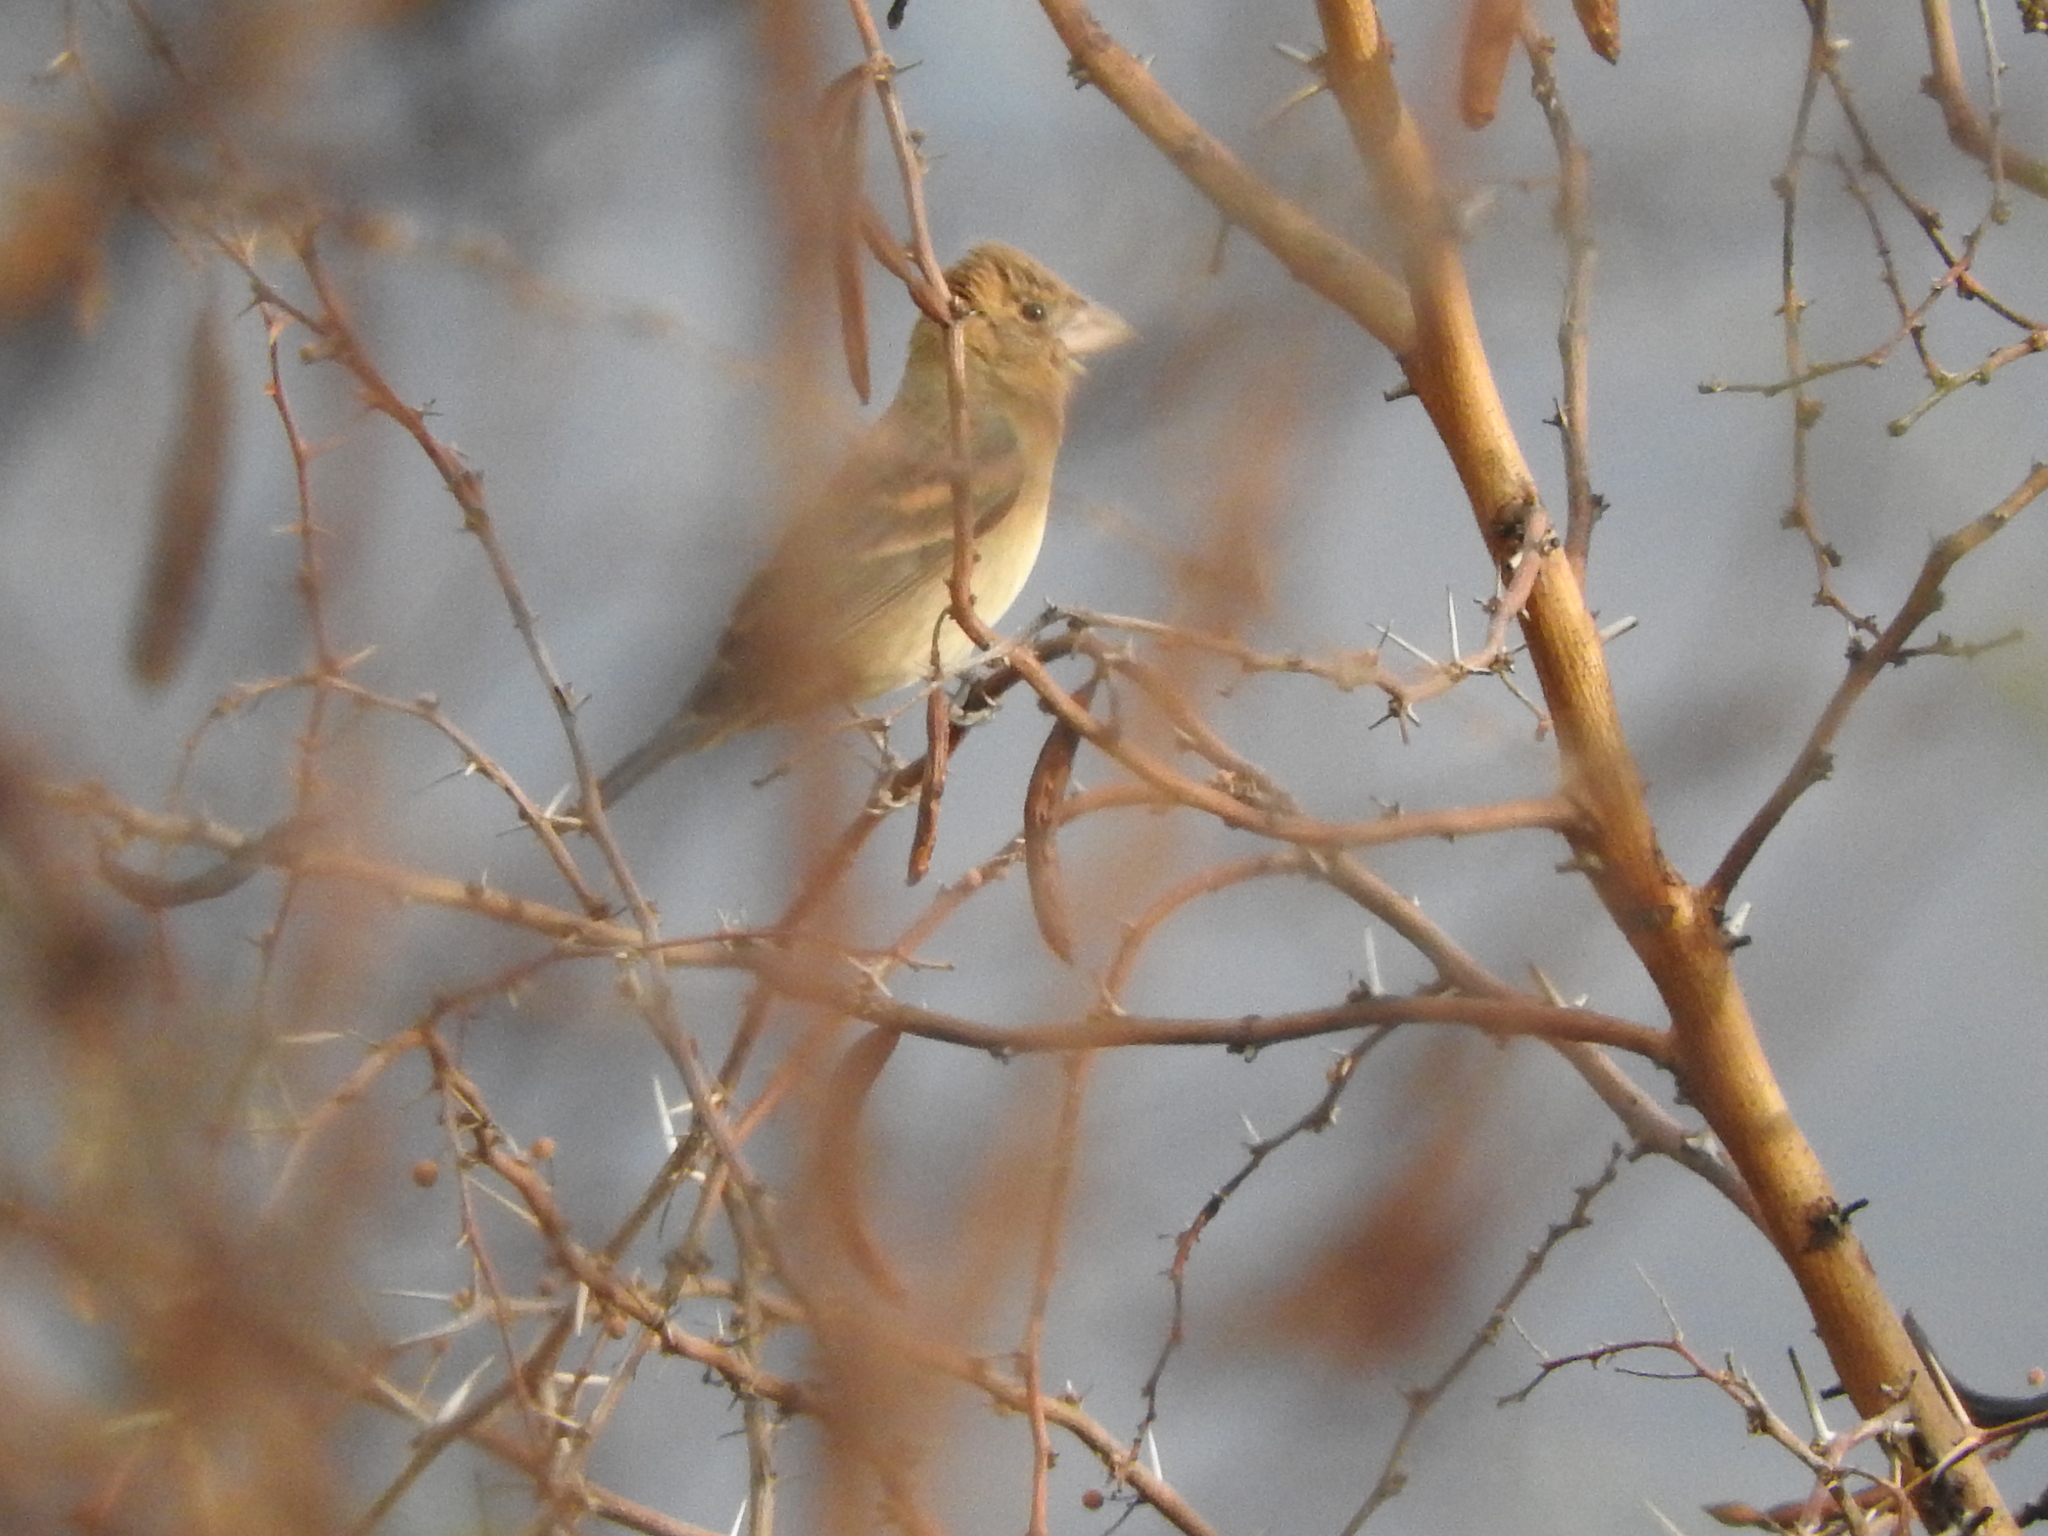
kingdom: Animalia
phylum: Chordata
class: Aves
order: Passeriformes
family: Cardinalidae
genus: Passerina
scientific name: Passerina caerulea
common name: Blue grosbeak
